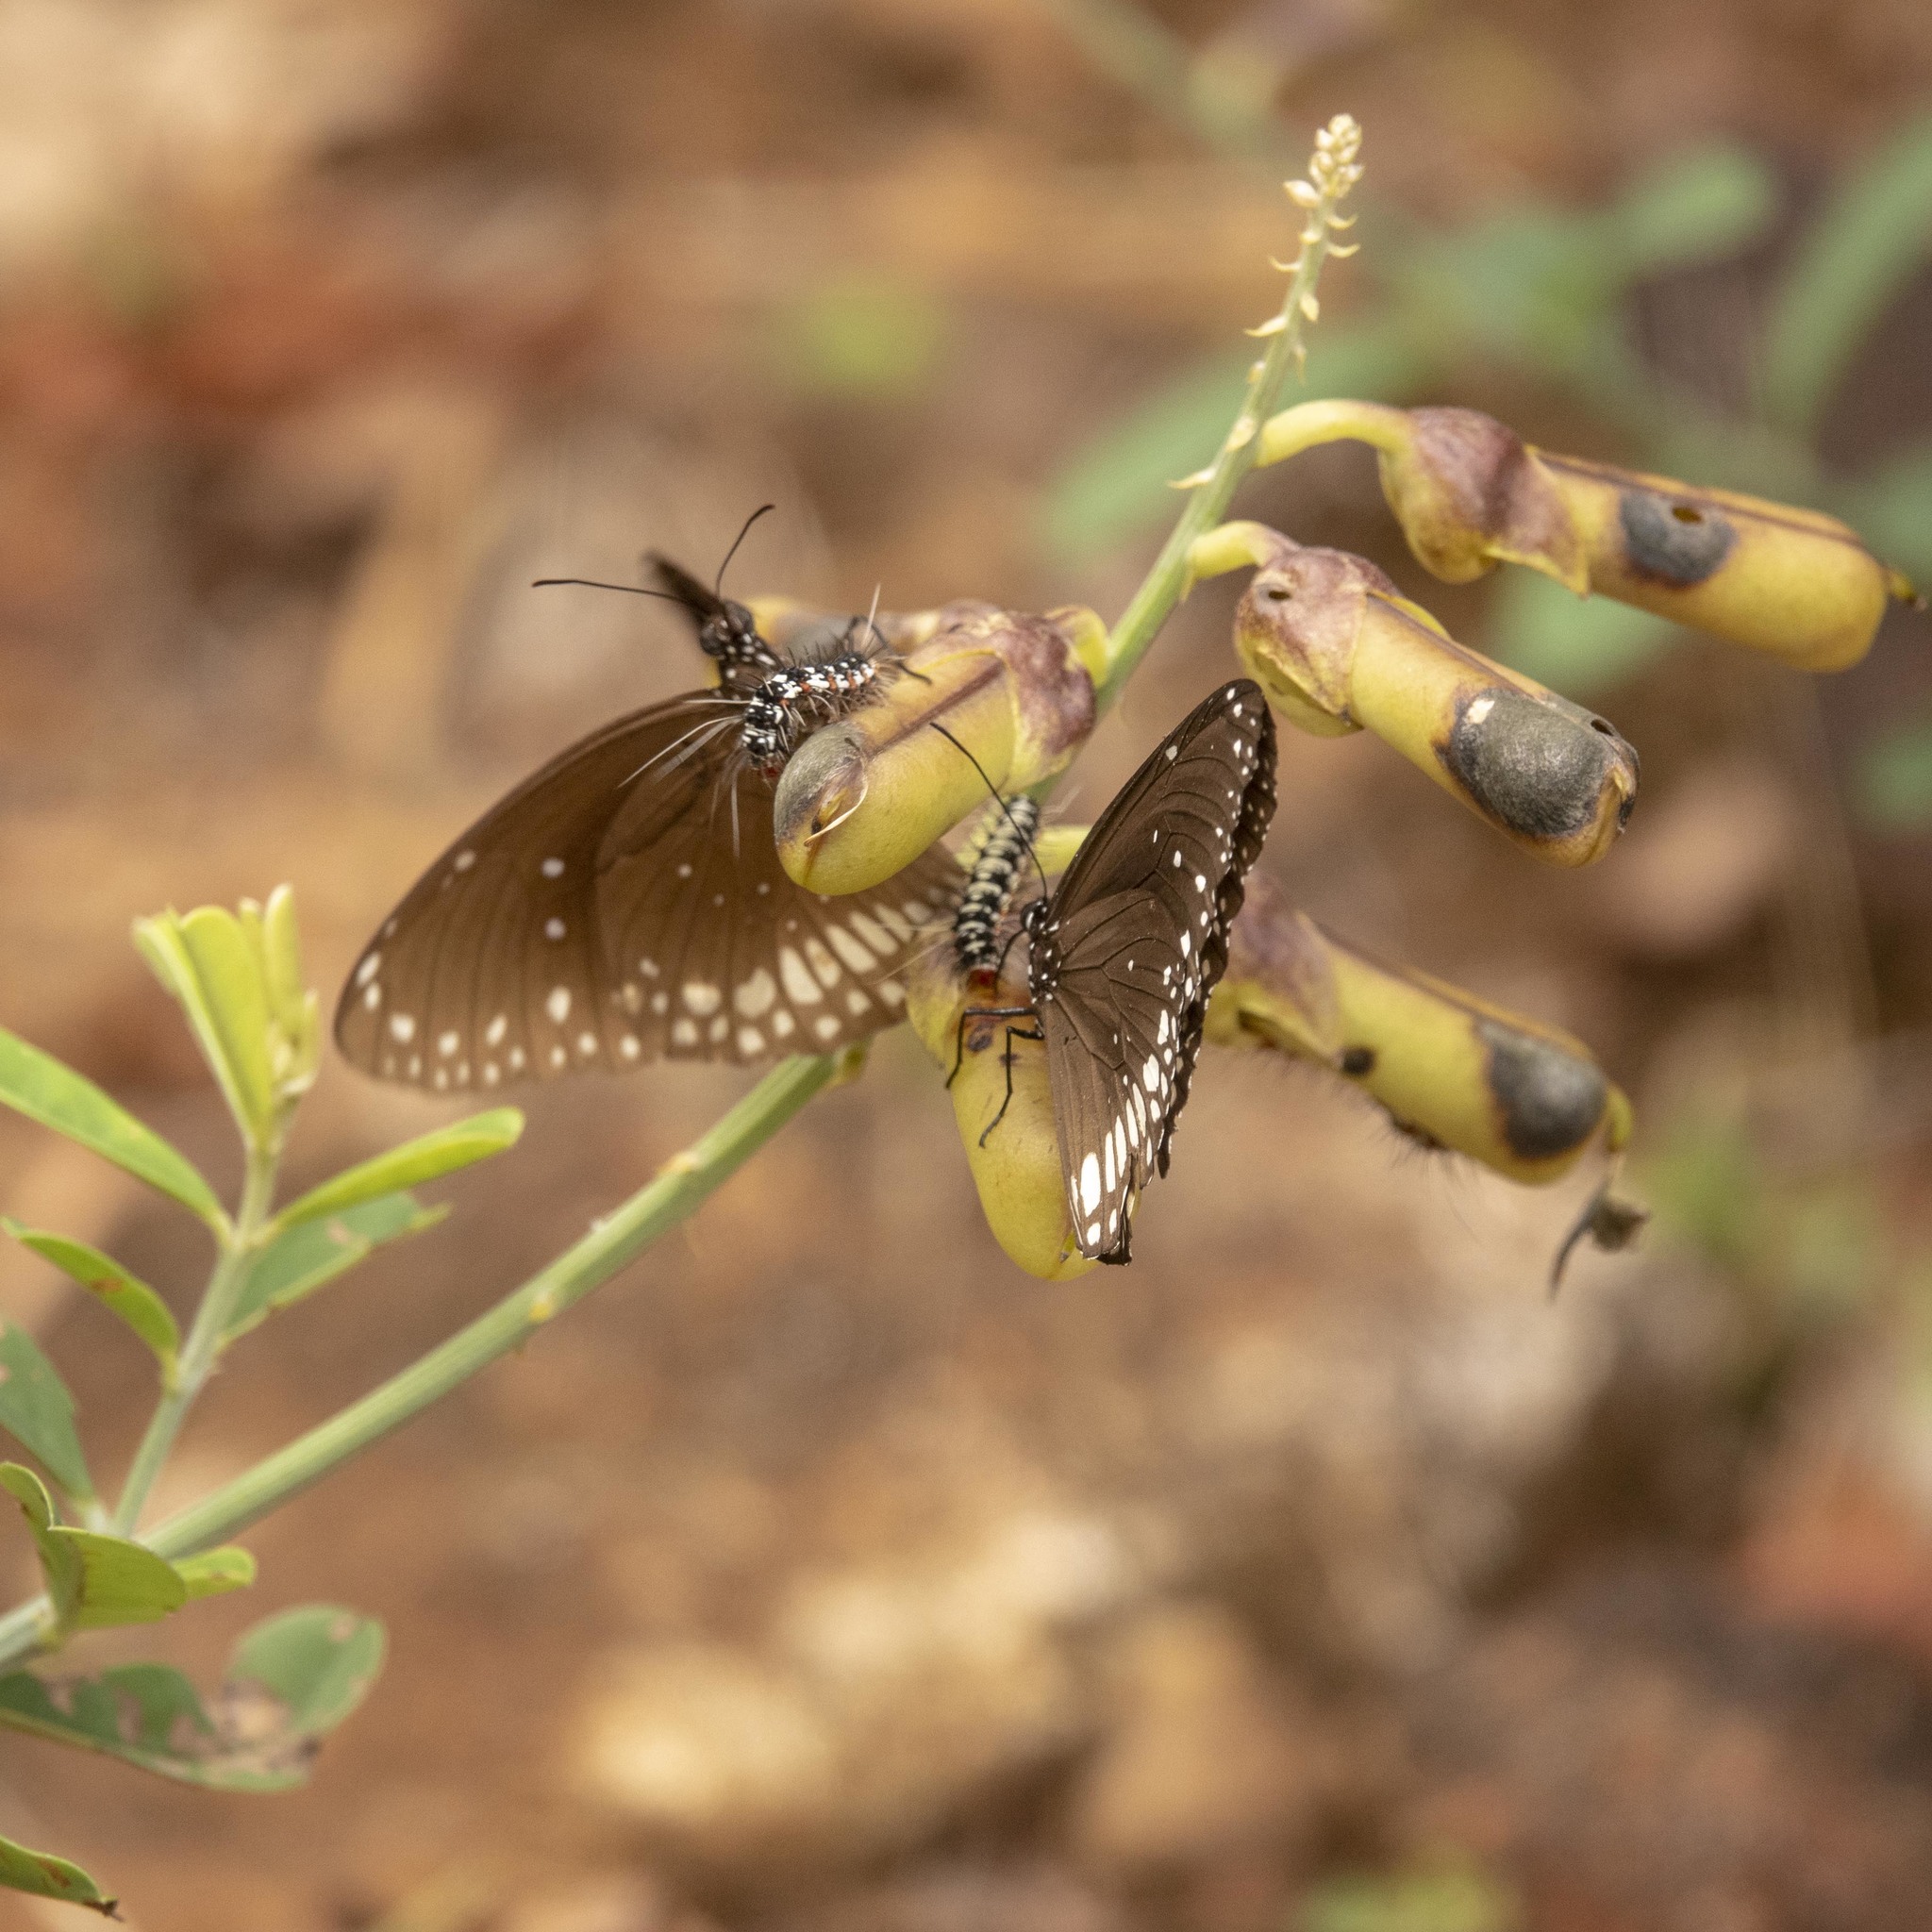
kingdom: Animalia
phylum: Arthropoda
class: Insecta
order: Lepidoptera
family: Nymphalidae
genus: Euploea
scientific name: Euploea core
